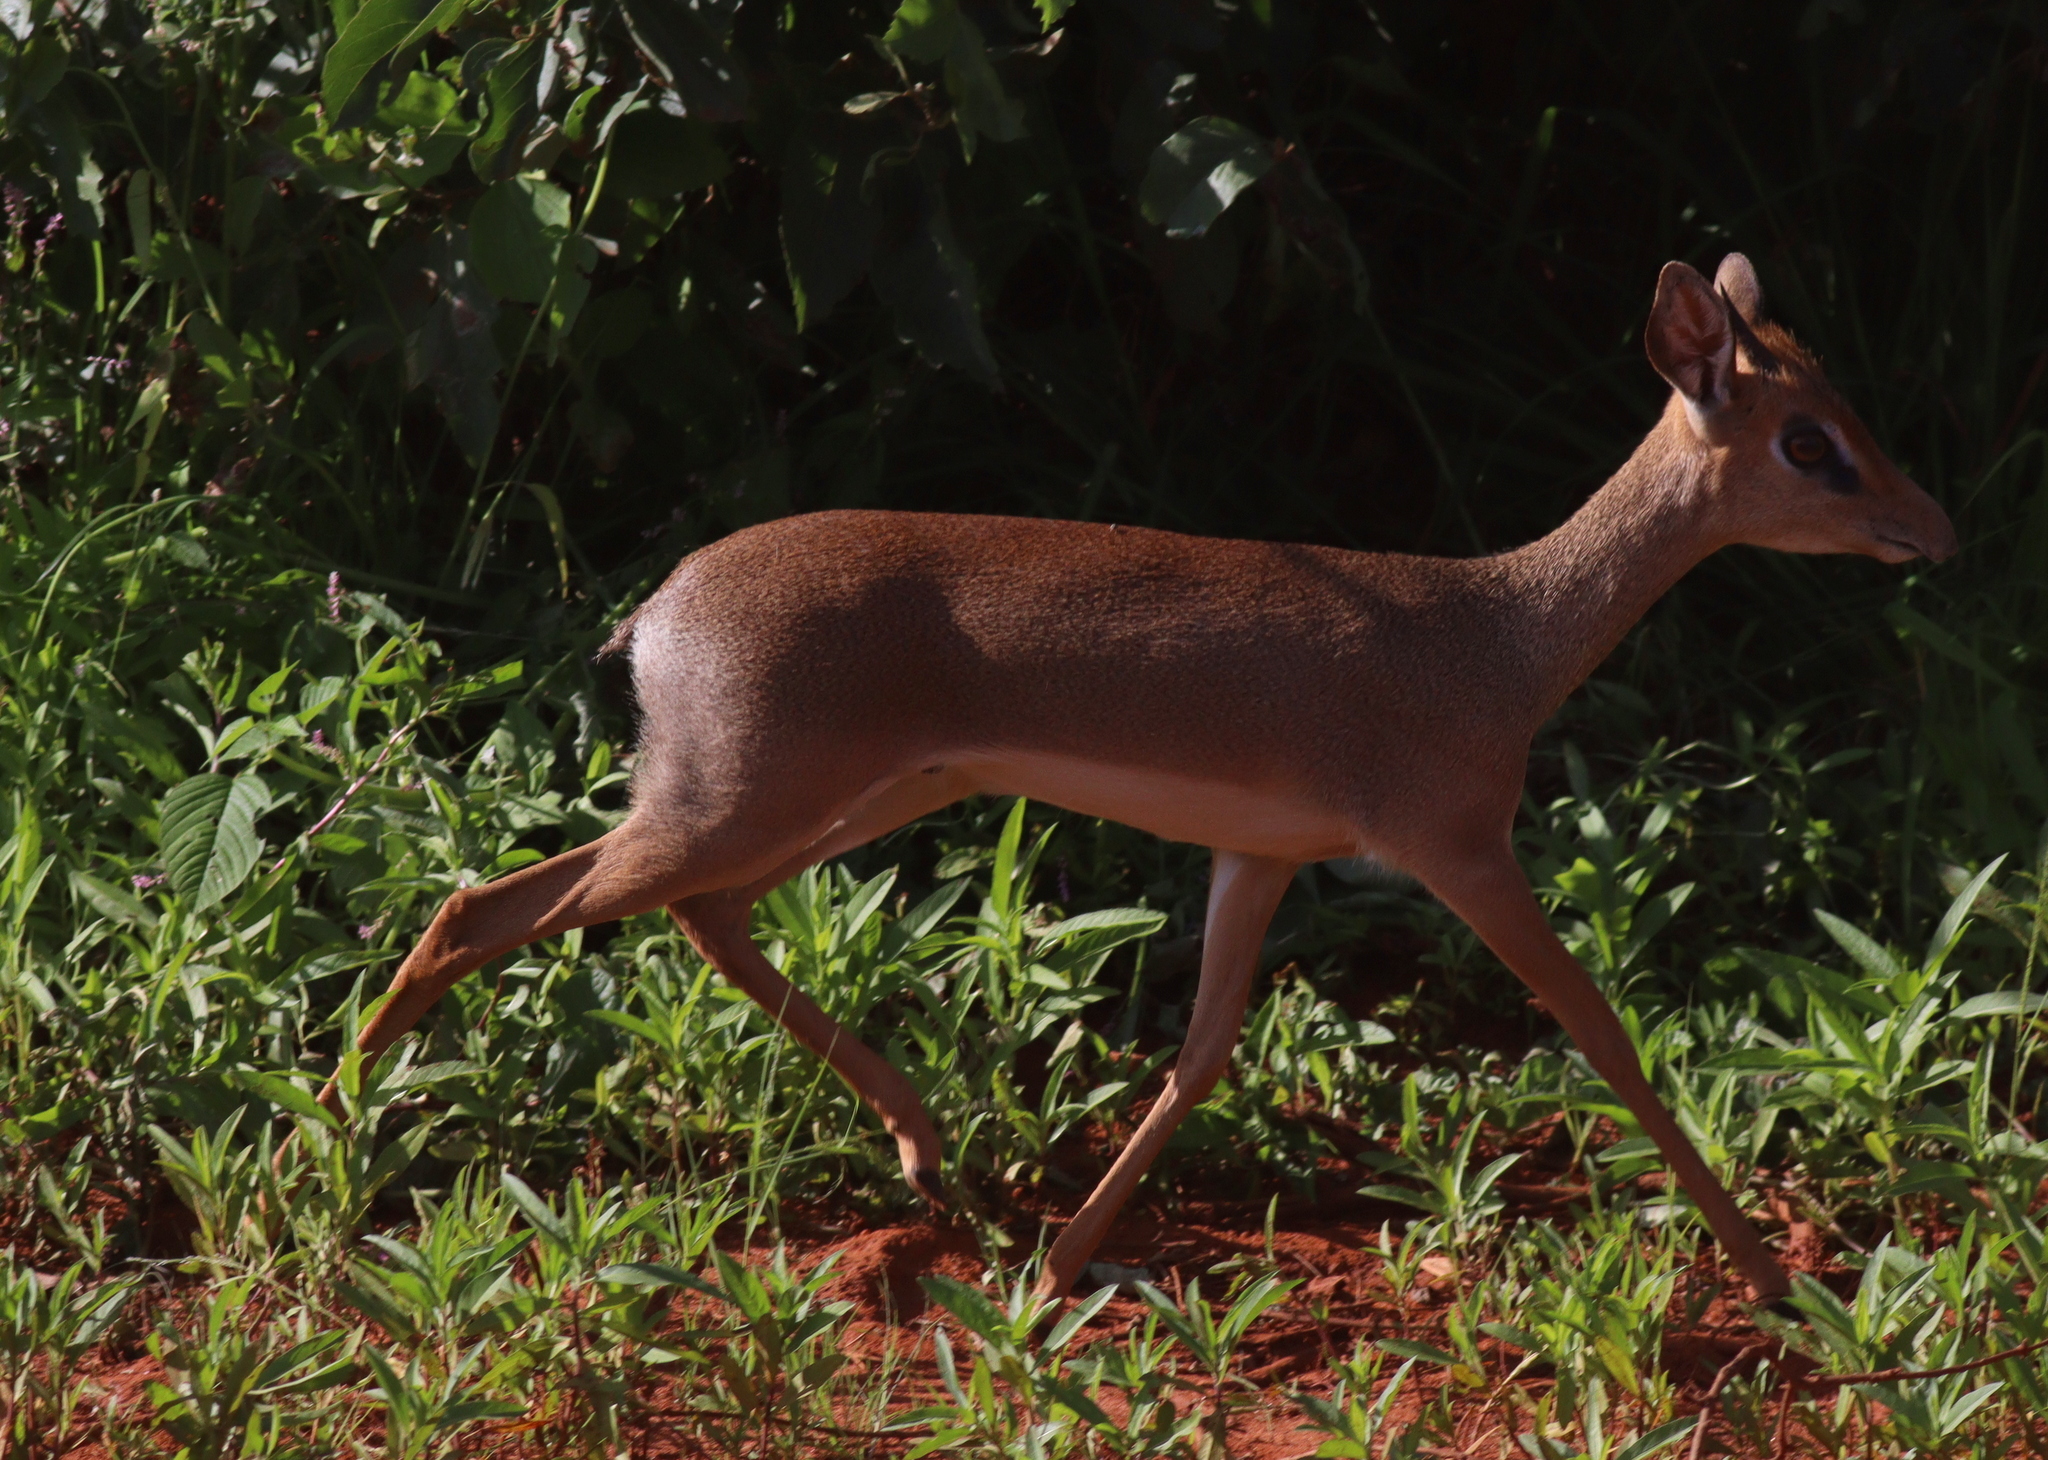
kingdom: Animalia
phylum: Chordata
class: Mammalia
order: Artiodactyla
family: Bovidae
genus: Madoqua
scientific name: Madoqua
